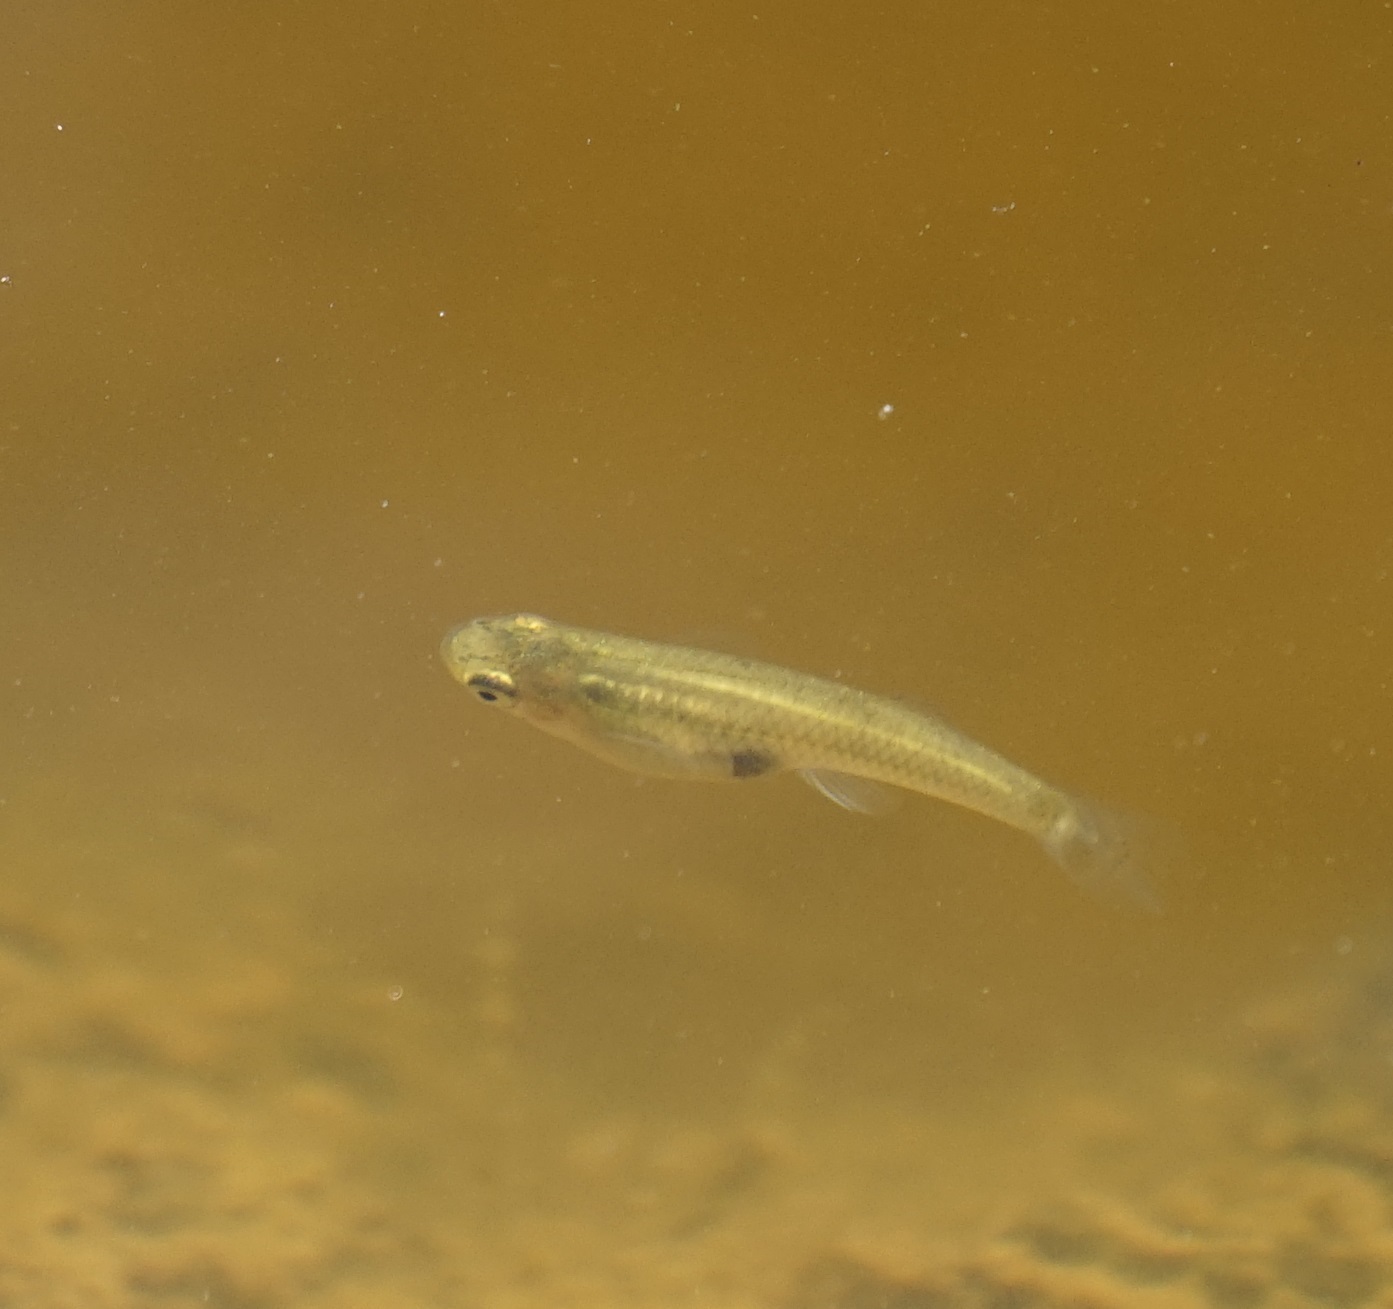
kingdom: Animalia
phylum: Chordata
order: Cyprinodontiformes
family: Poeciliidae
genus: Gambusia
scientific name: Gambusia holbrooki
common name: Eastern mosquitofish
